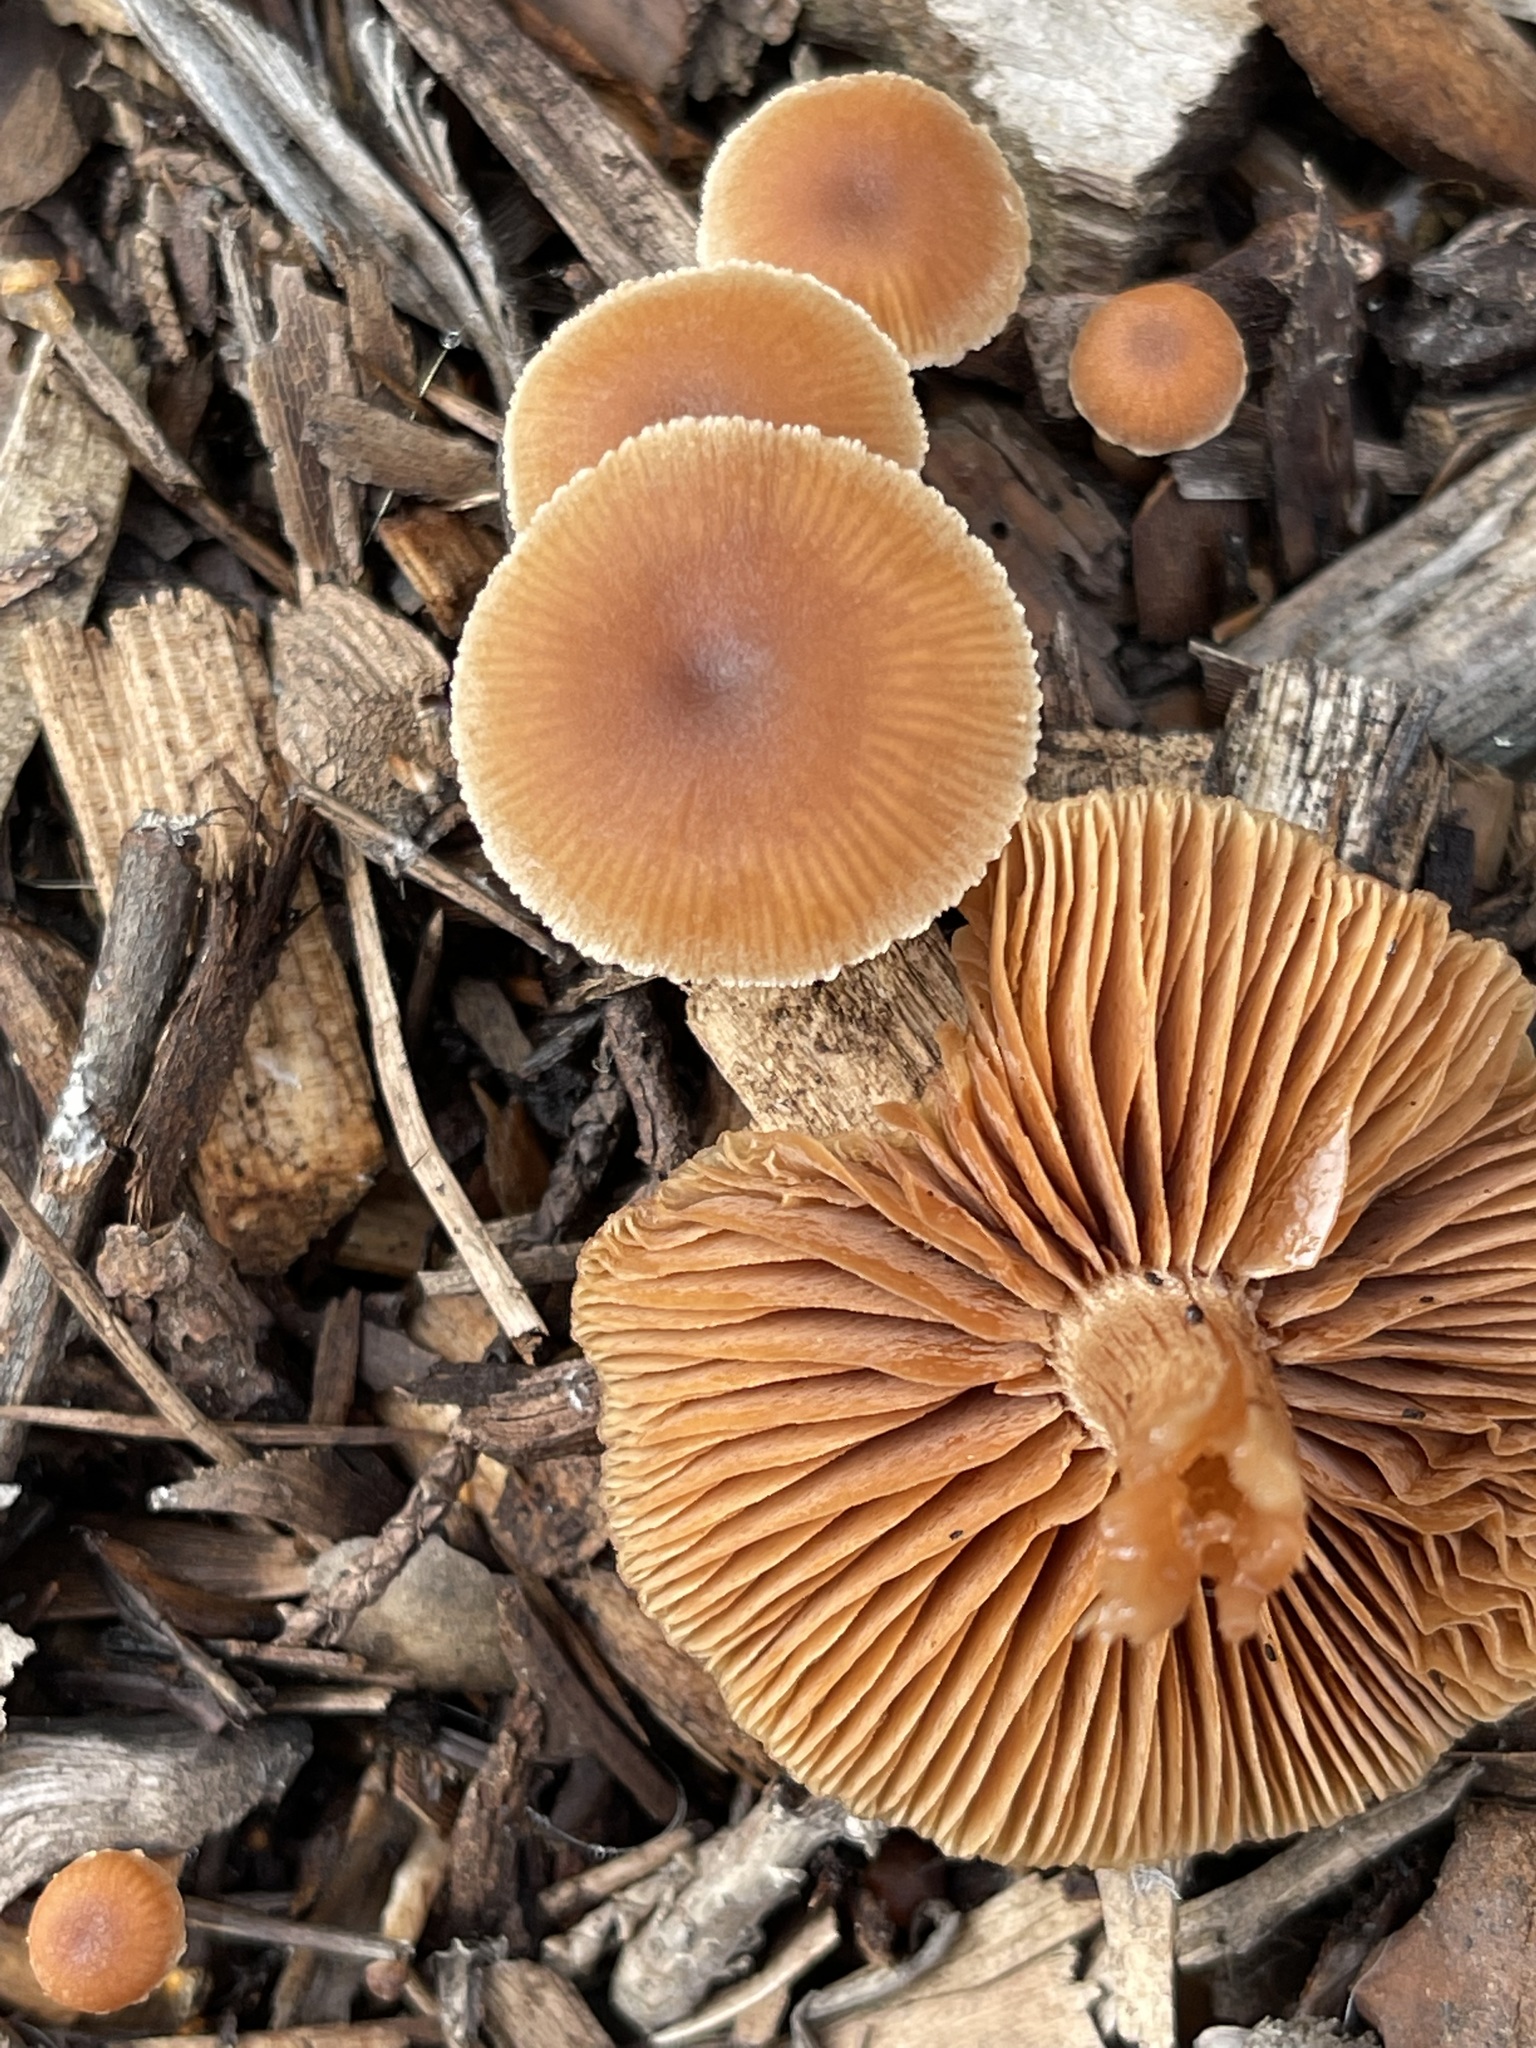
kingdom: Fungi
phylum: Basidiomycota
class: Agaricomycetes
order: Agaricales
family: Tubariaceae
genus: Tubaria
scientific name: Tubaria furfuracea
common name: Scurfy twiglet
